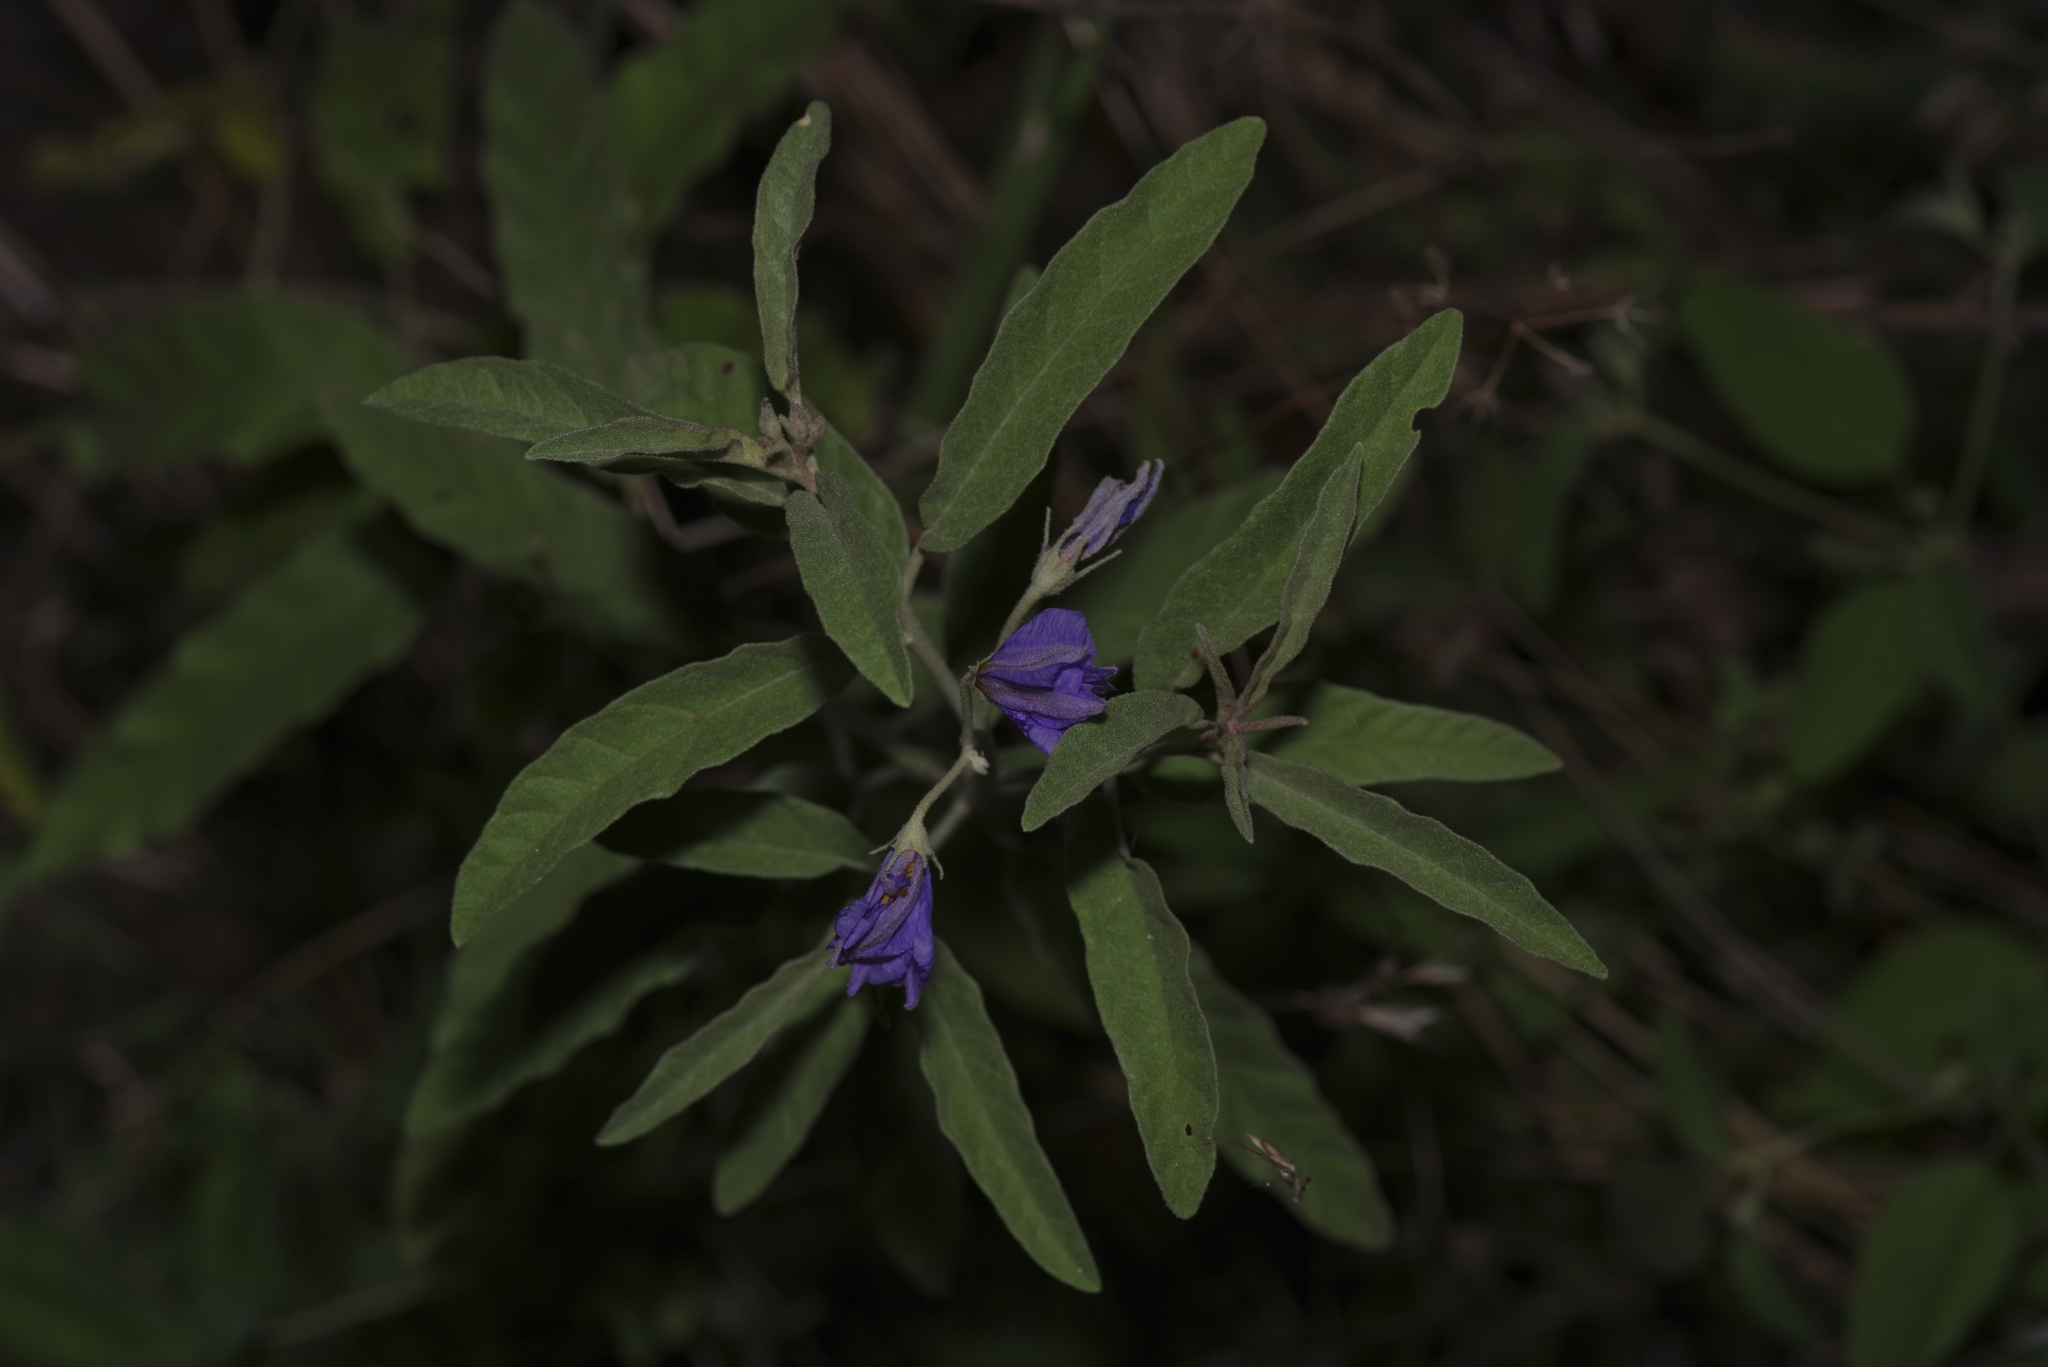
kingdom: Plantae
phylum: Tracheophyta
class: Magnoliopsida
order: Solanales
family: Solanaceae
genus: Solanum
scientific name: Solanum elaeagnifolium
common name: Silverleaf nightshade
